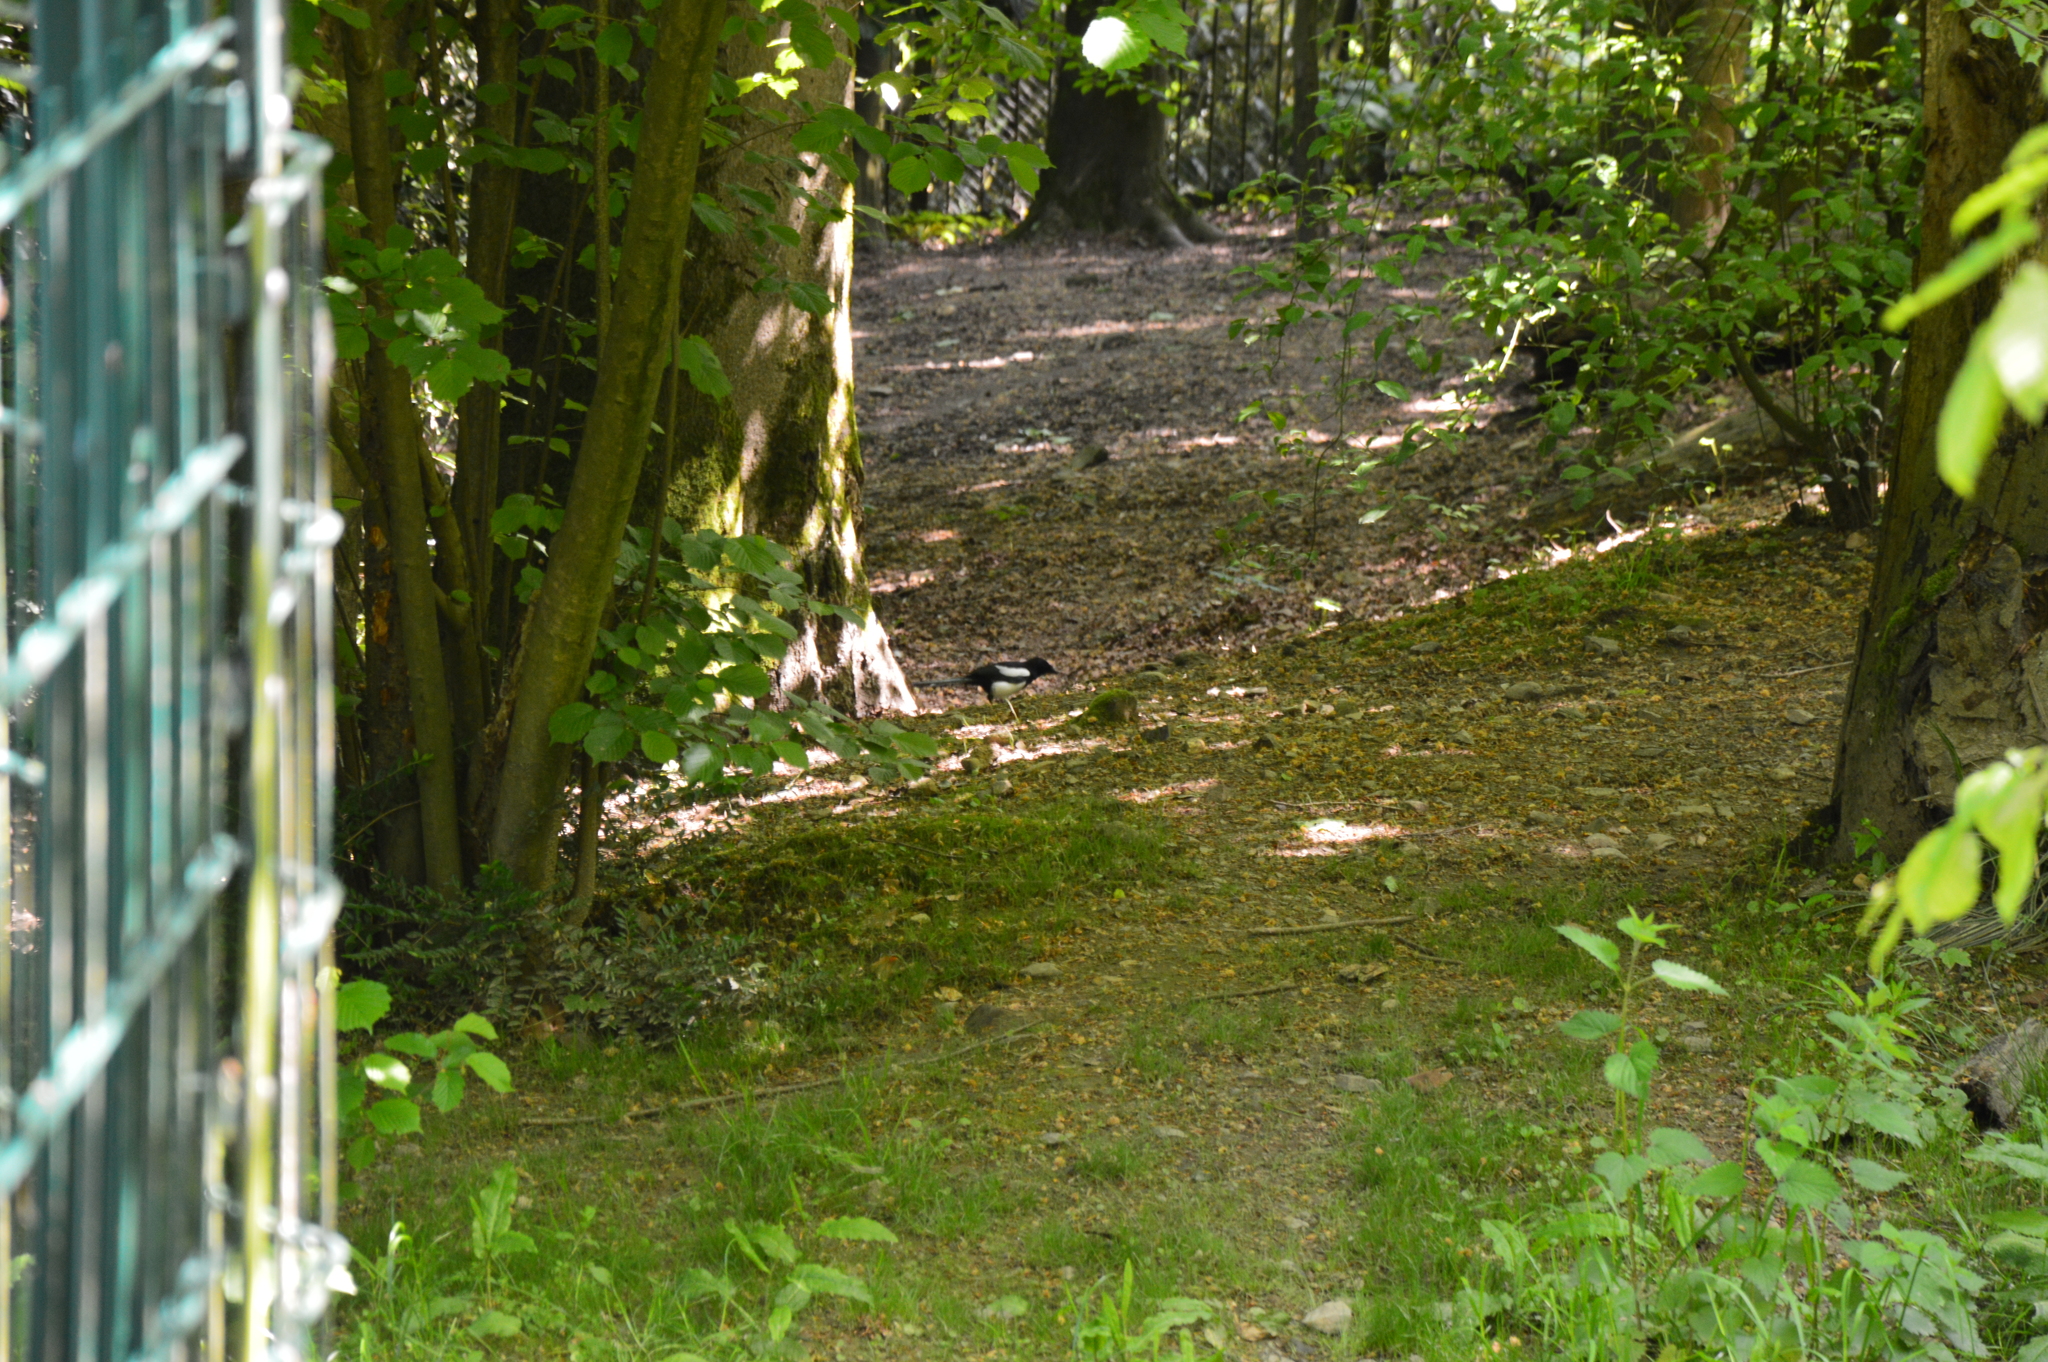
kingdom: Animalia
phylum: Chordata
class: Aves
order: Passeriformes
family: Corvidae
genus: Pica
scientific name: Pica pica
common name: Eurasian magpie
